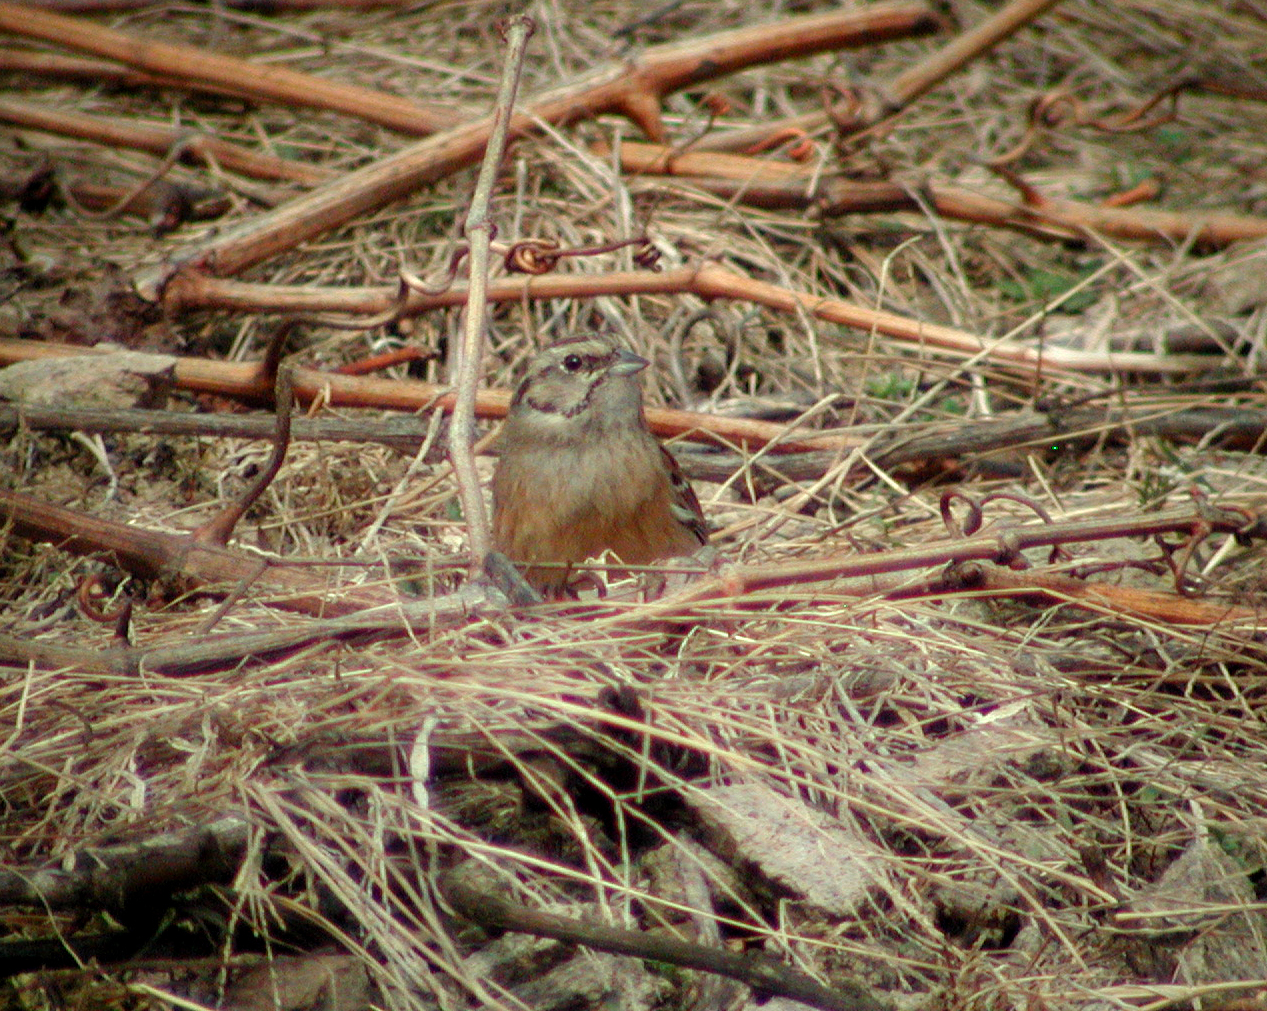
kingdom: Animalia
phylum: Chordata
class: Aves
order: Passeriformes
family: Emberizidae
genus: Emberiza
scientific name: Emberiza cia
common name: Rock bunting
